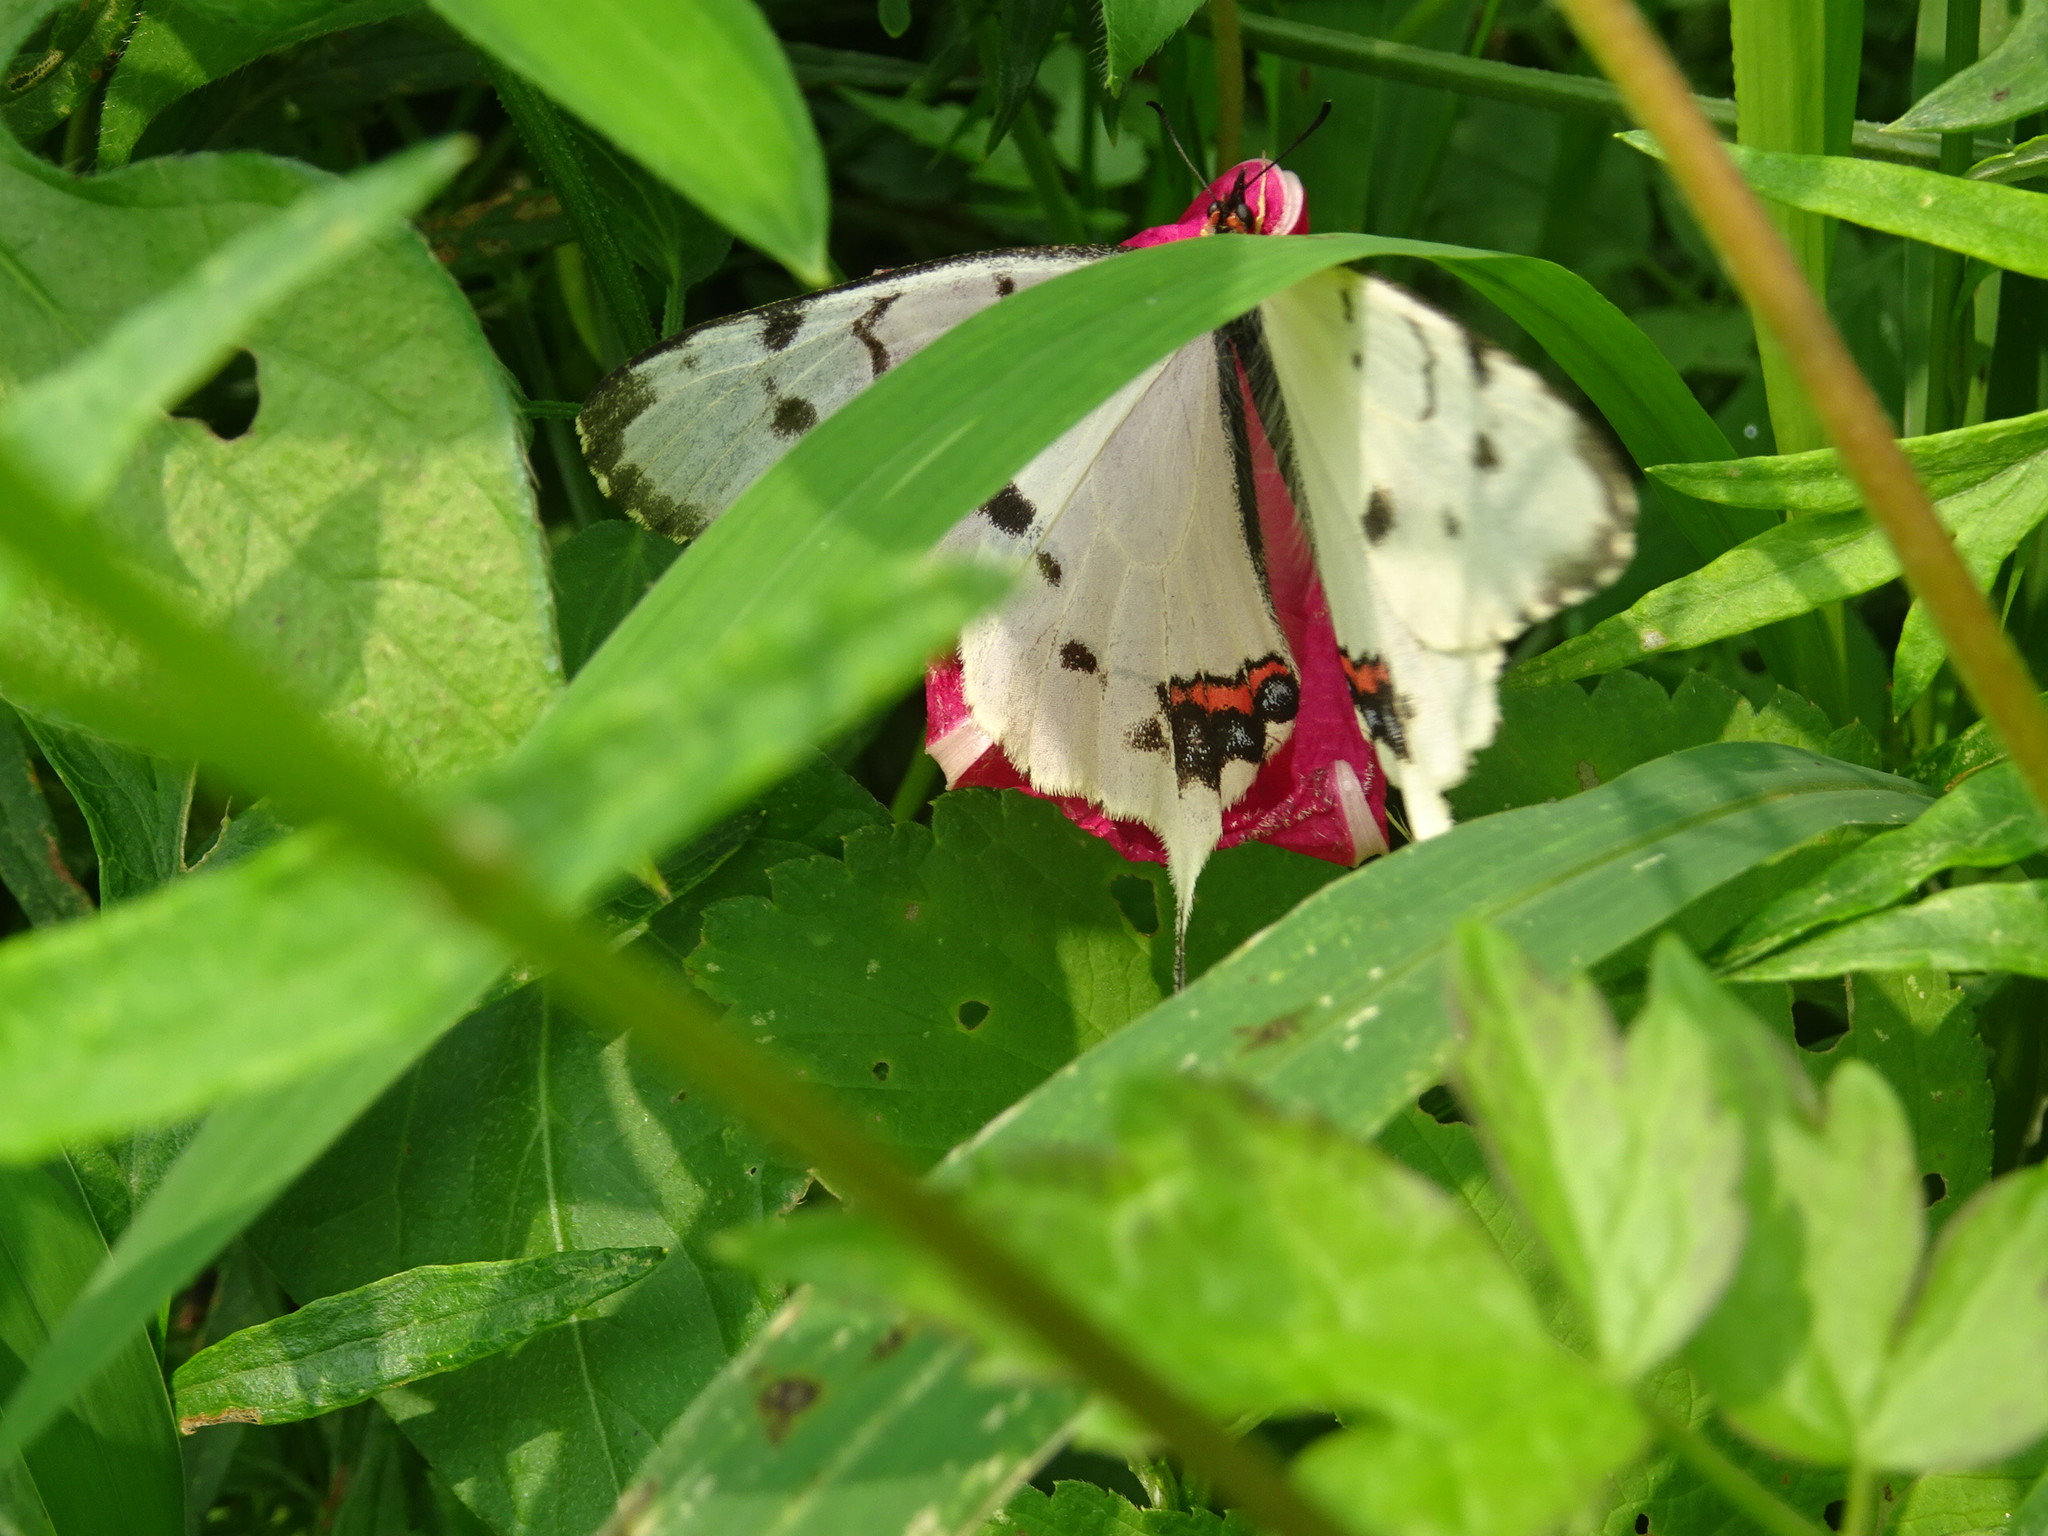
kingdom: Animalia
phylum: Arthropoda
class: Insecta
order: Lepidoptera
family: Papilionidae
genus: Sericinus
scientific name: Sericinus montela
